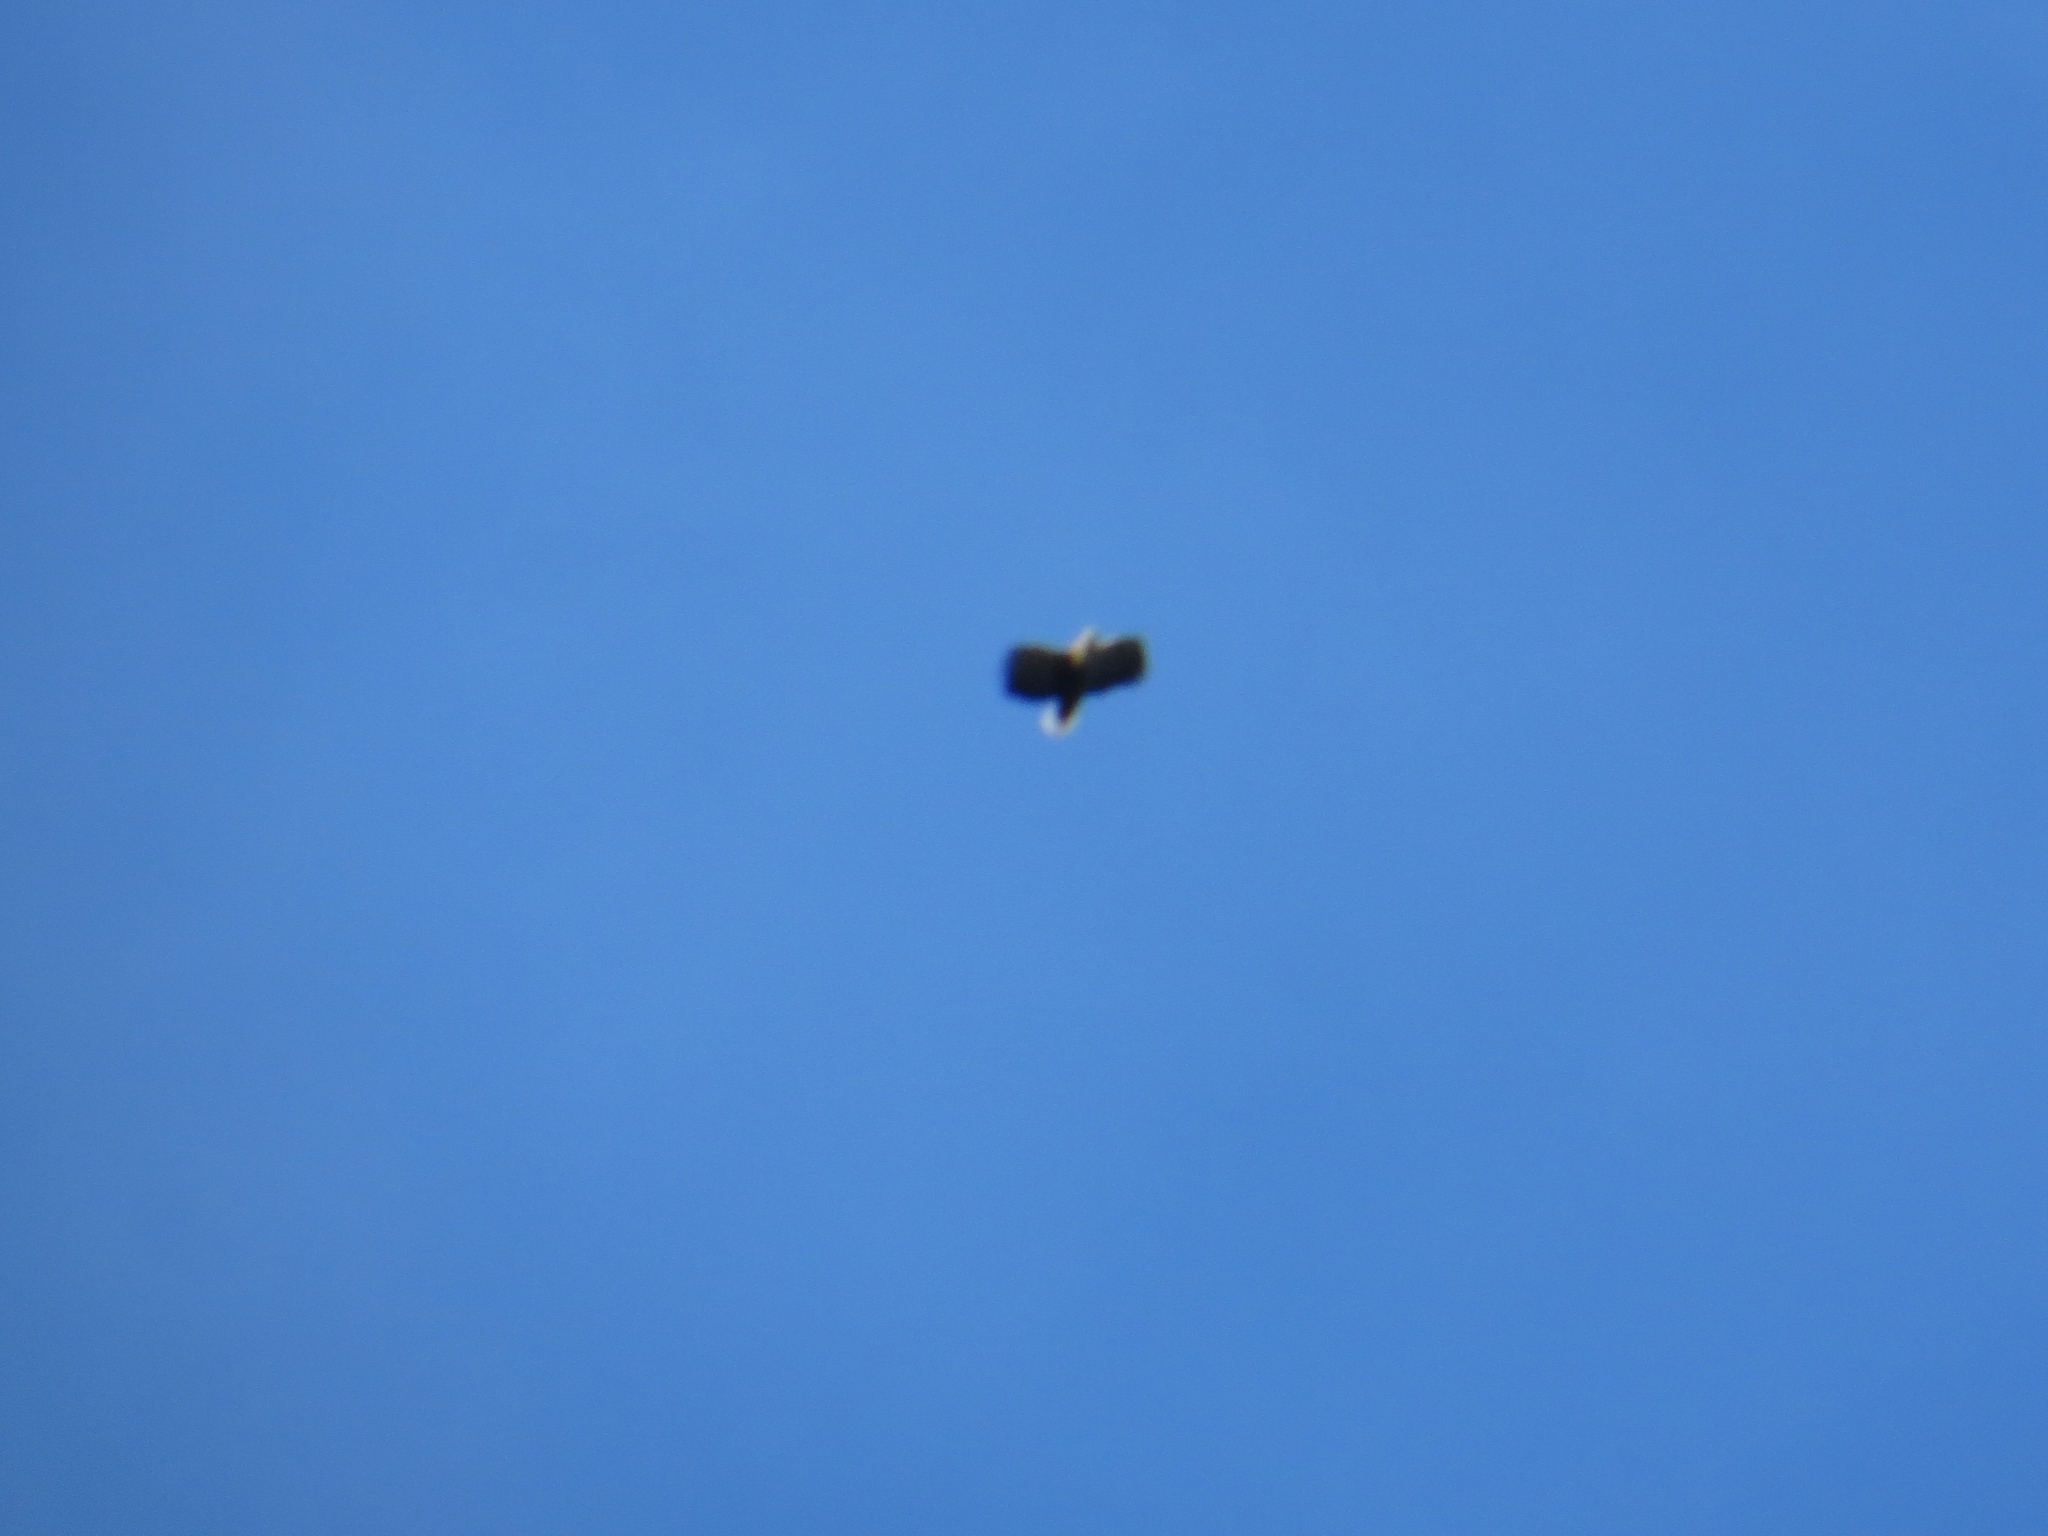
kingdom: Animalia
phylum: Chordata
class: Aves
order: Accipitriformes
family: Accipitridae
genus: Haliaeetus
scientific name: Haliaeetus albicilla
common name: White-tailed eagle
